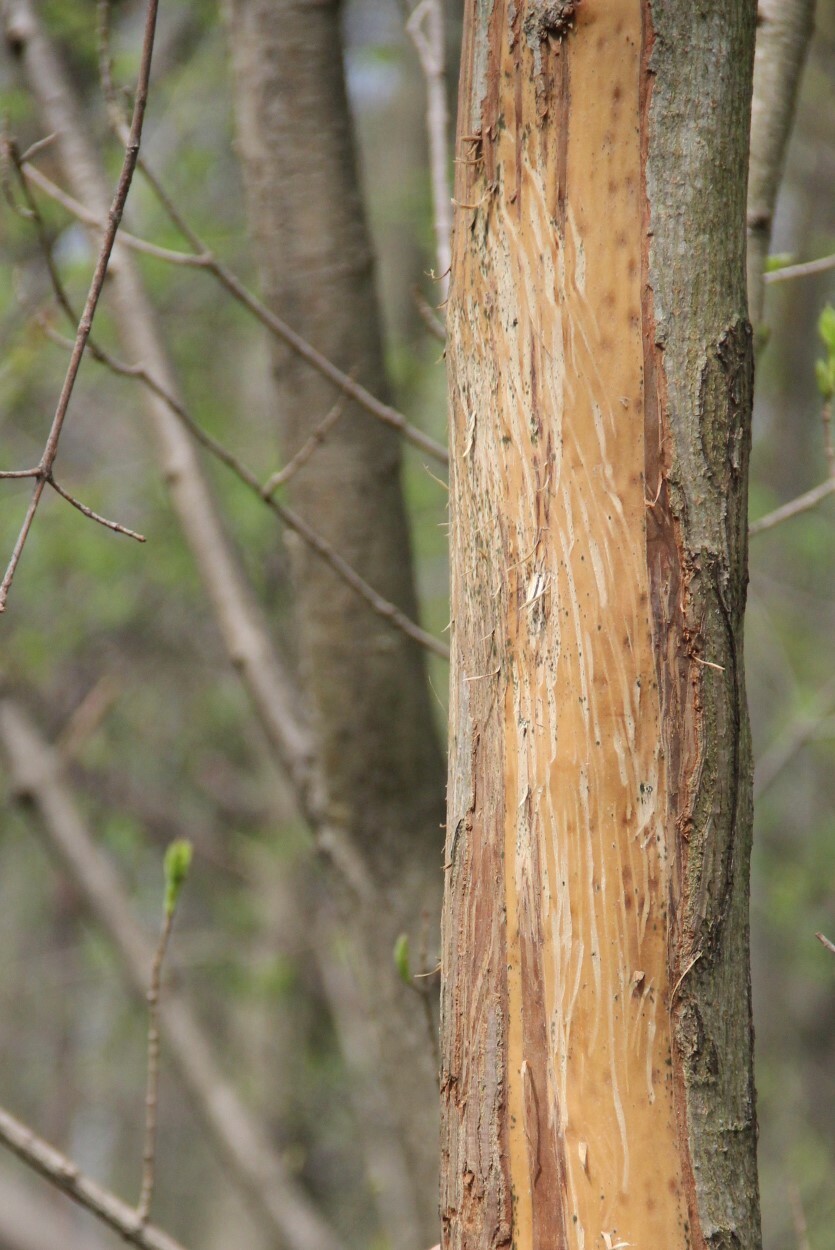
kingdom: Animalia
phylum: Chordata
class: Mammalia
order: Artiodactyla
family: Cervidae
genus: Alces
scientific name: Alces alces
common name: Moose
